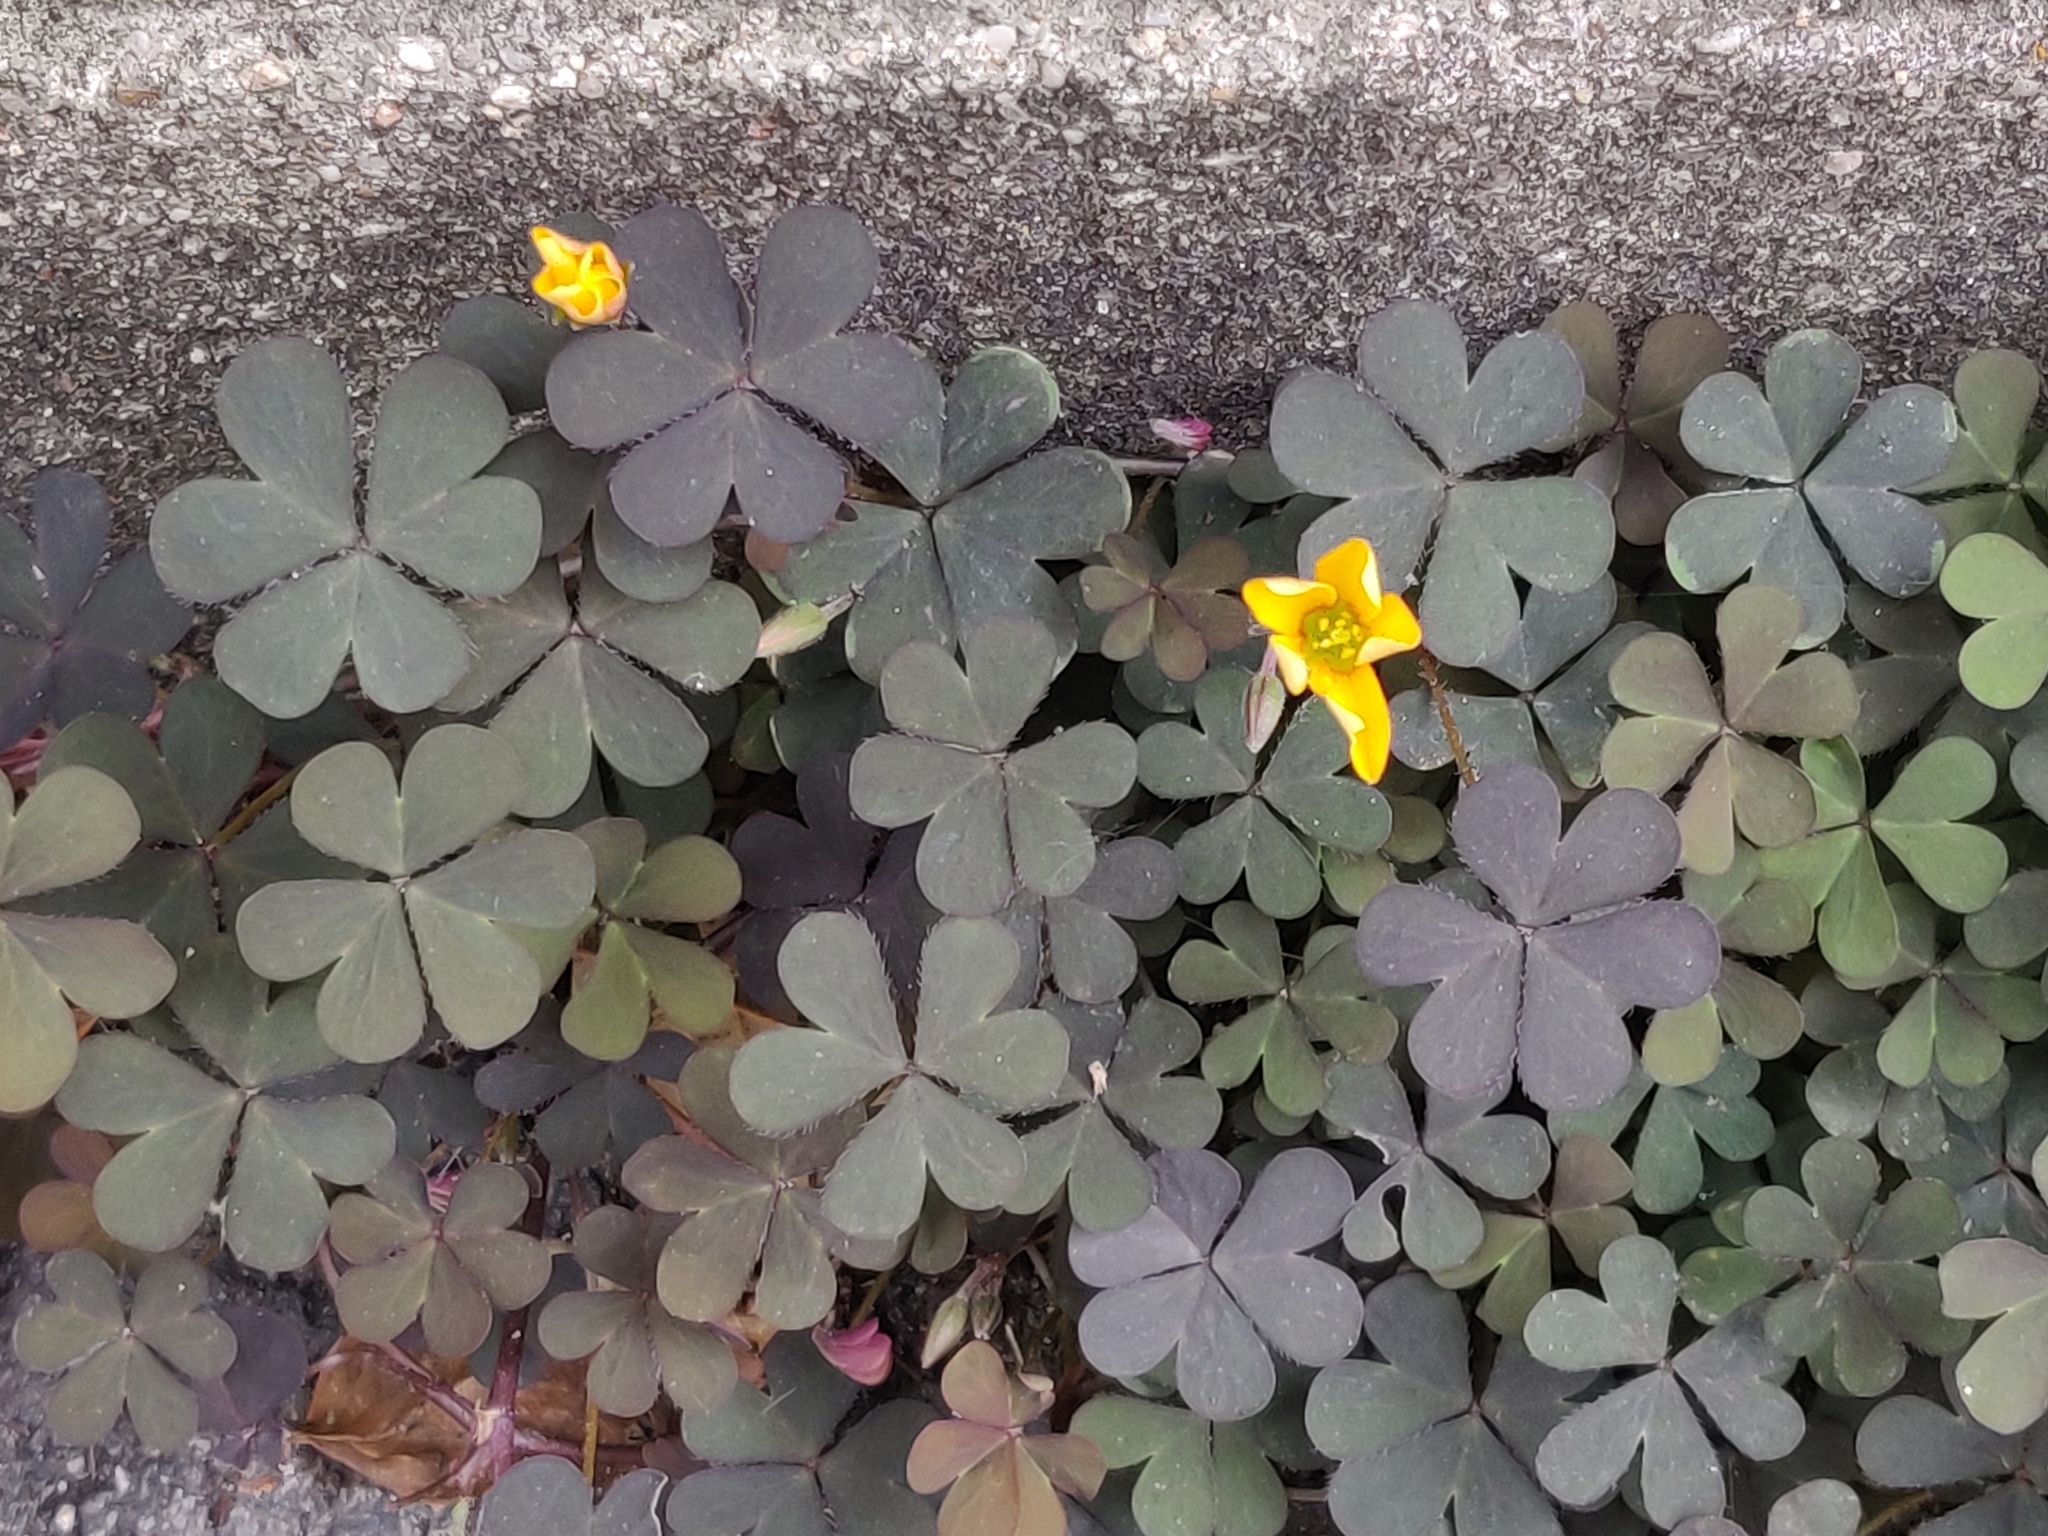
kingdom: Plantae
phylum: Tracheophyta
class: Magnoliopsida
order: Oxalidales
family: Oxalidaceae
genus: Oxalis
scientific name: Oxalis corniculata
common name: Procumbent yellow-sorrel
